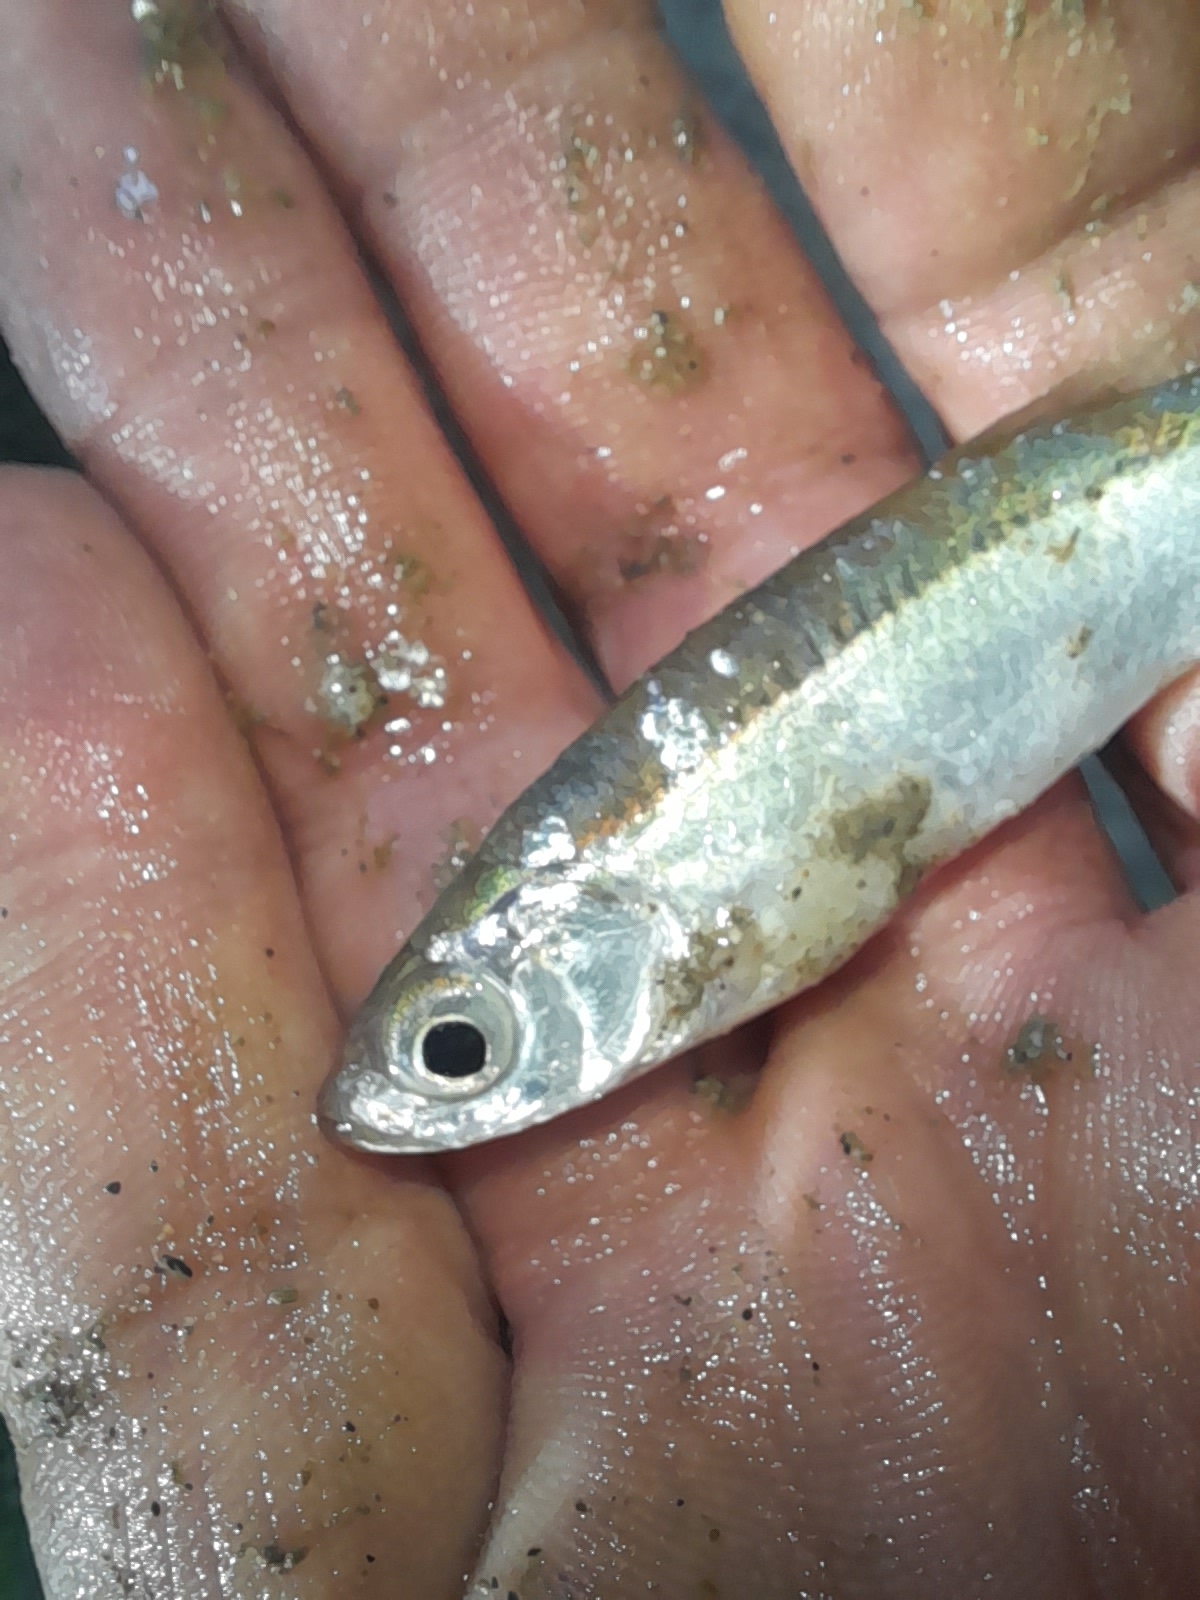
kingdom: Animalia
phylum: Chordata
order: Cypriniformes
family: Cyprinidae
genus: Alburnus
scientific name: Alburnus arborella
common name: Alborella
